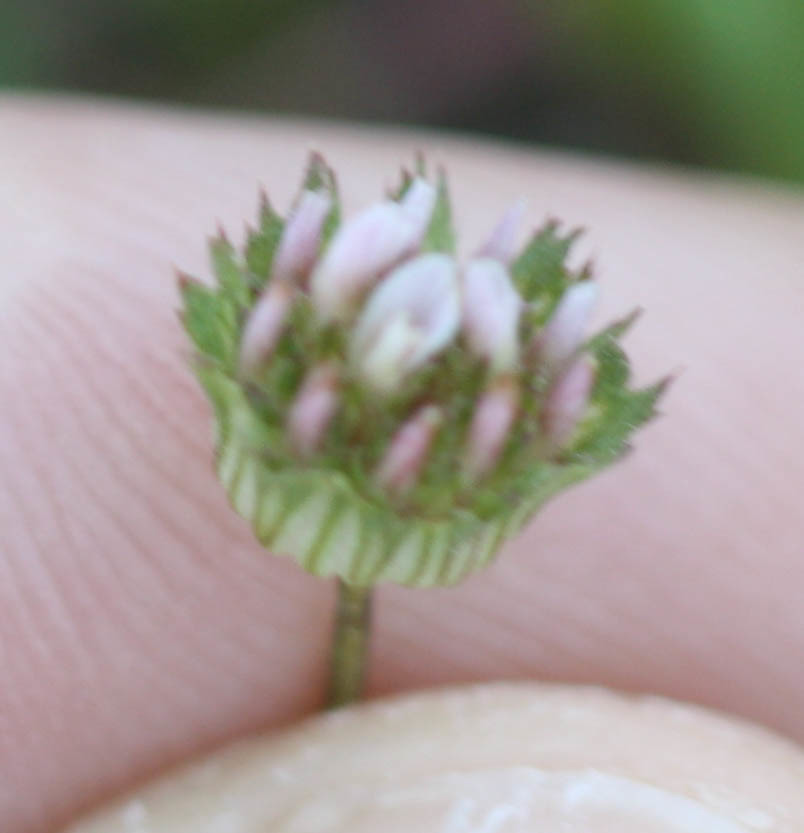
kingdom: Plantae
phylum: Tracheophyta
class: Magnoliopsida
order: Fabales
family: Fabaceae
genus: Trifolium
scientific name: Trifolium microdon
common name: Thimble clover
